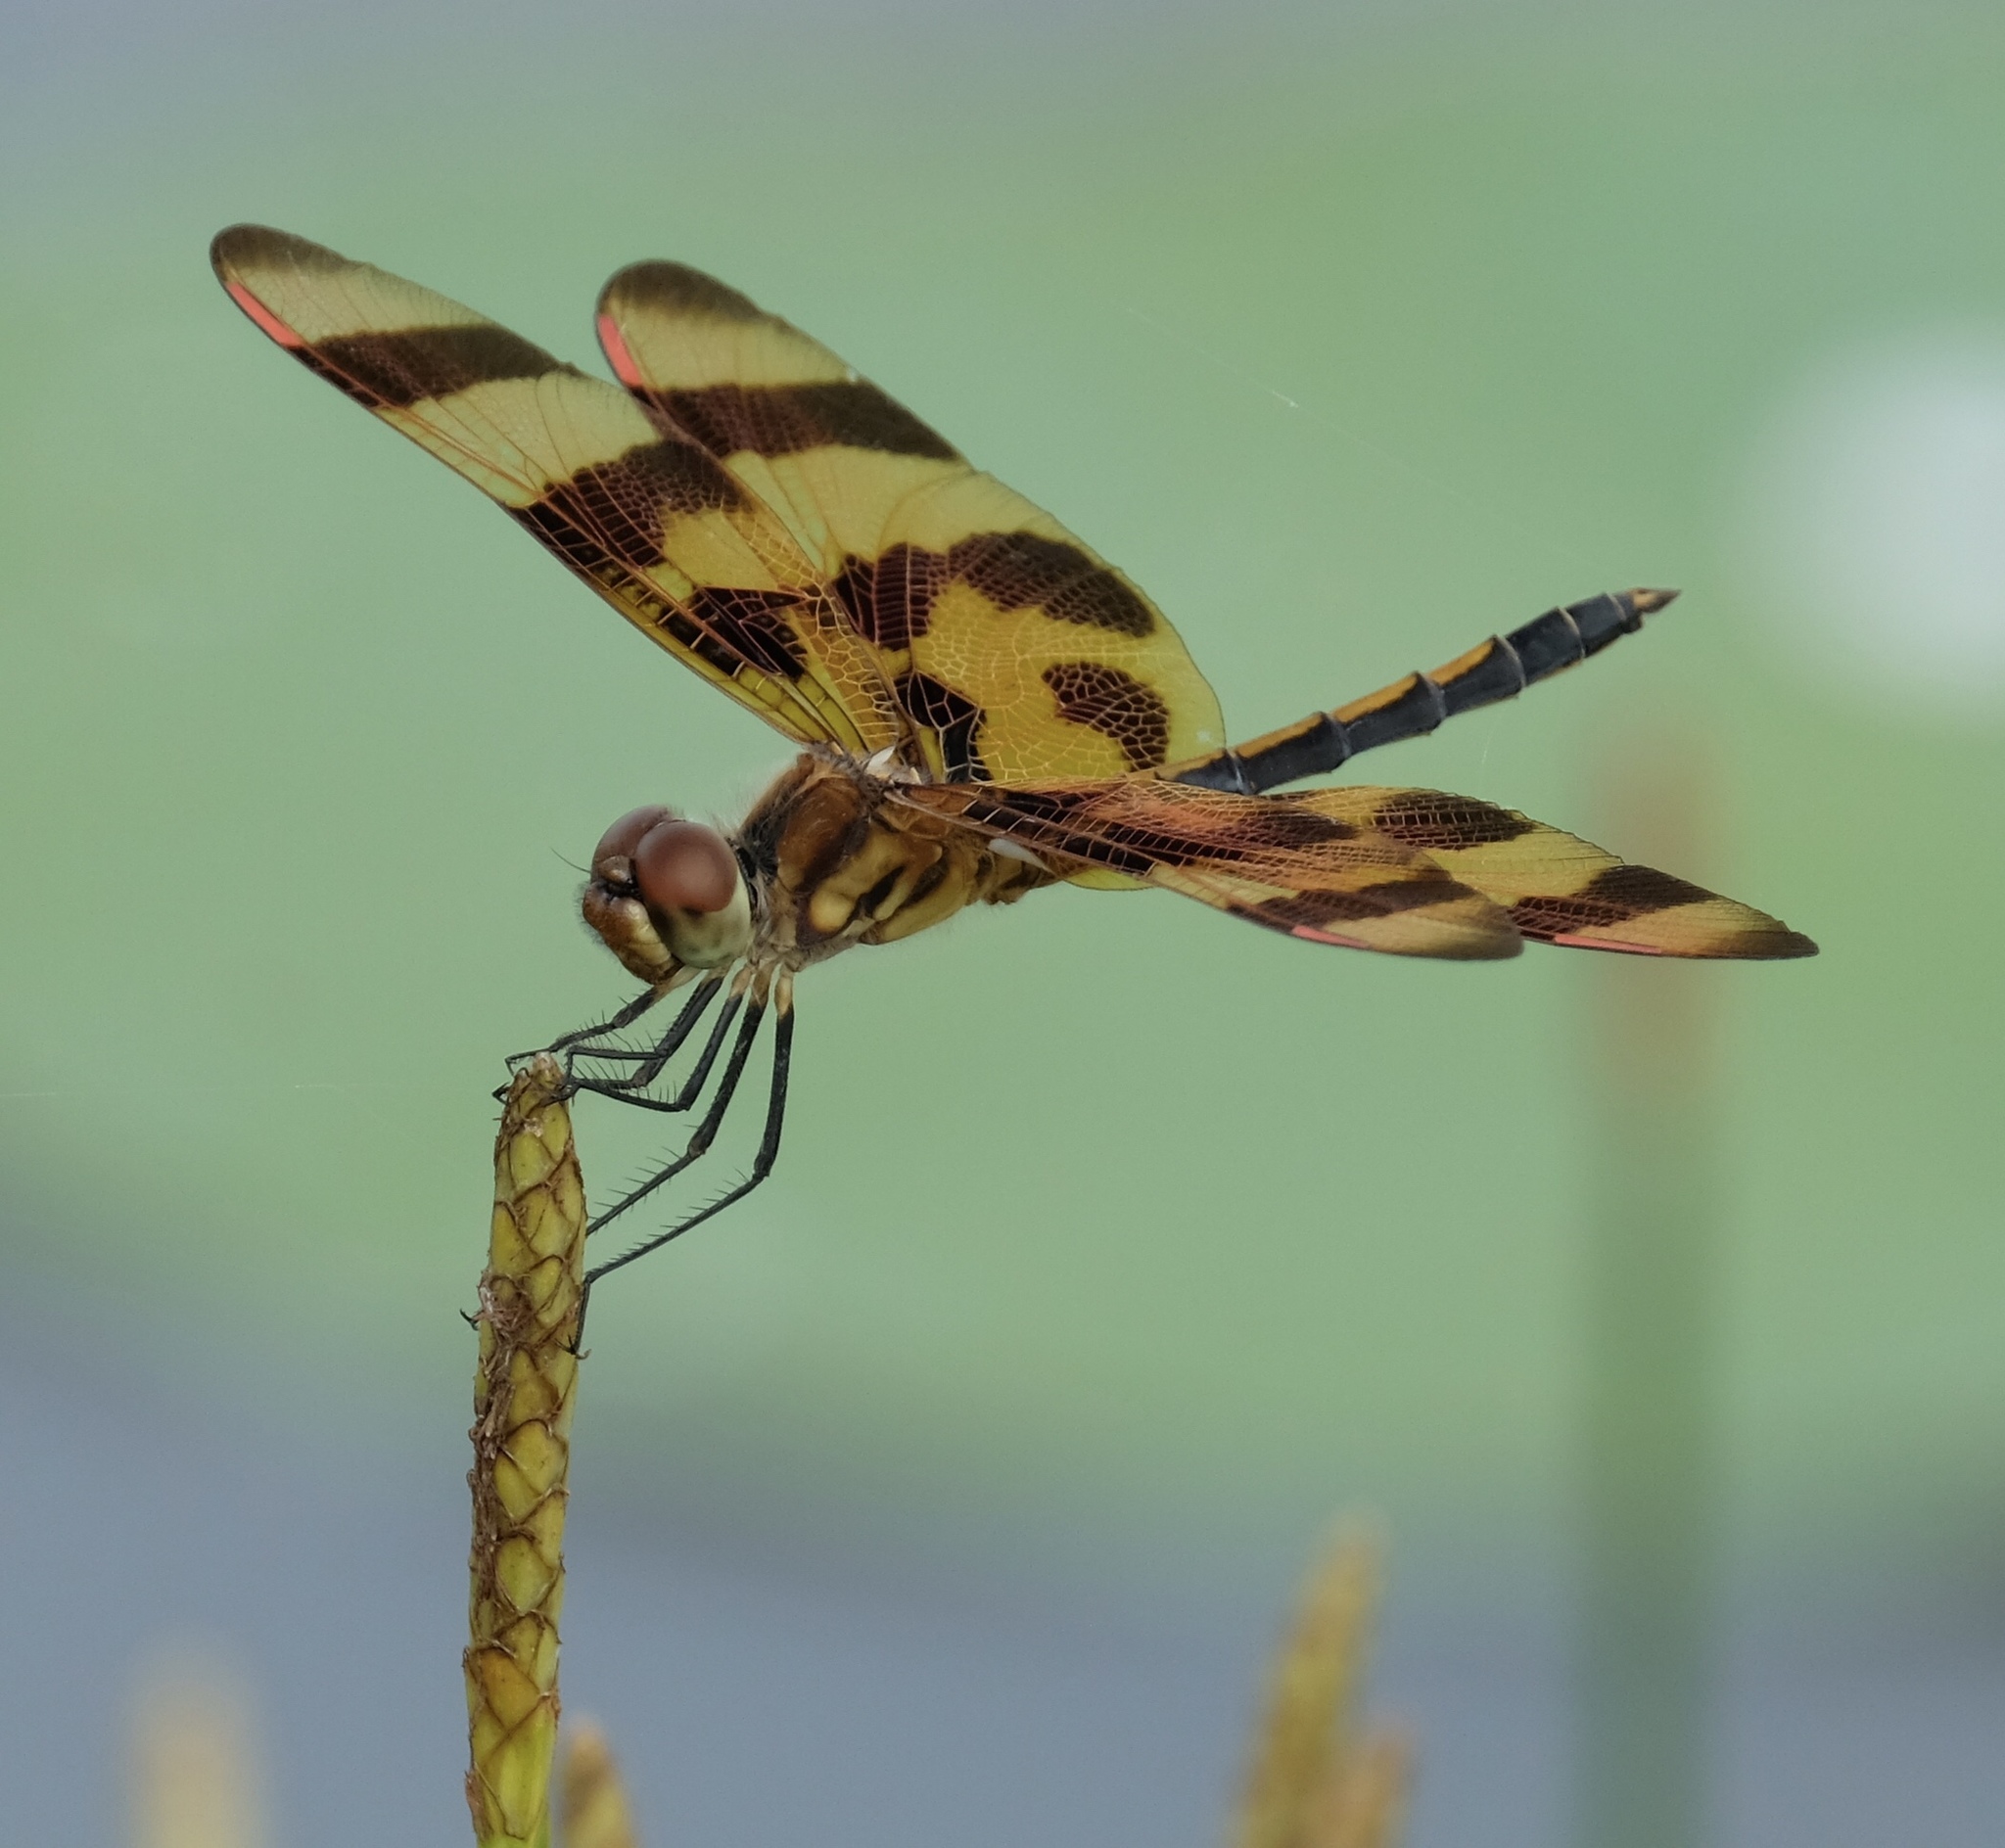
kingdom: Animalia
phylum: Arthropoda
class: Insecta
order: Odonata
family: Libellulidae
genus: Celithemis
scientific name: Celithemis eponina
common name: Halloween pennant
